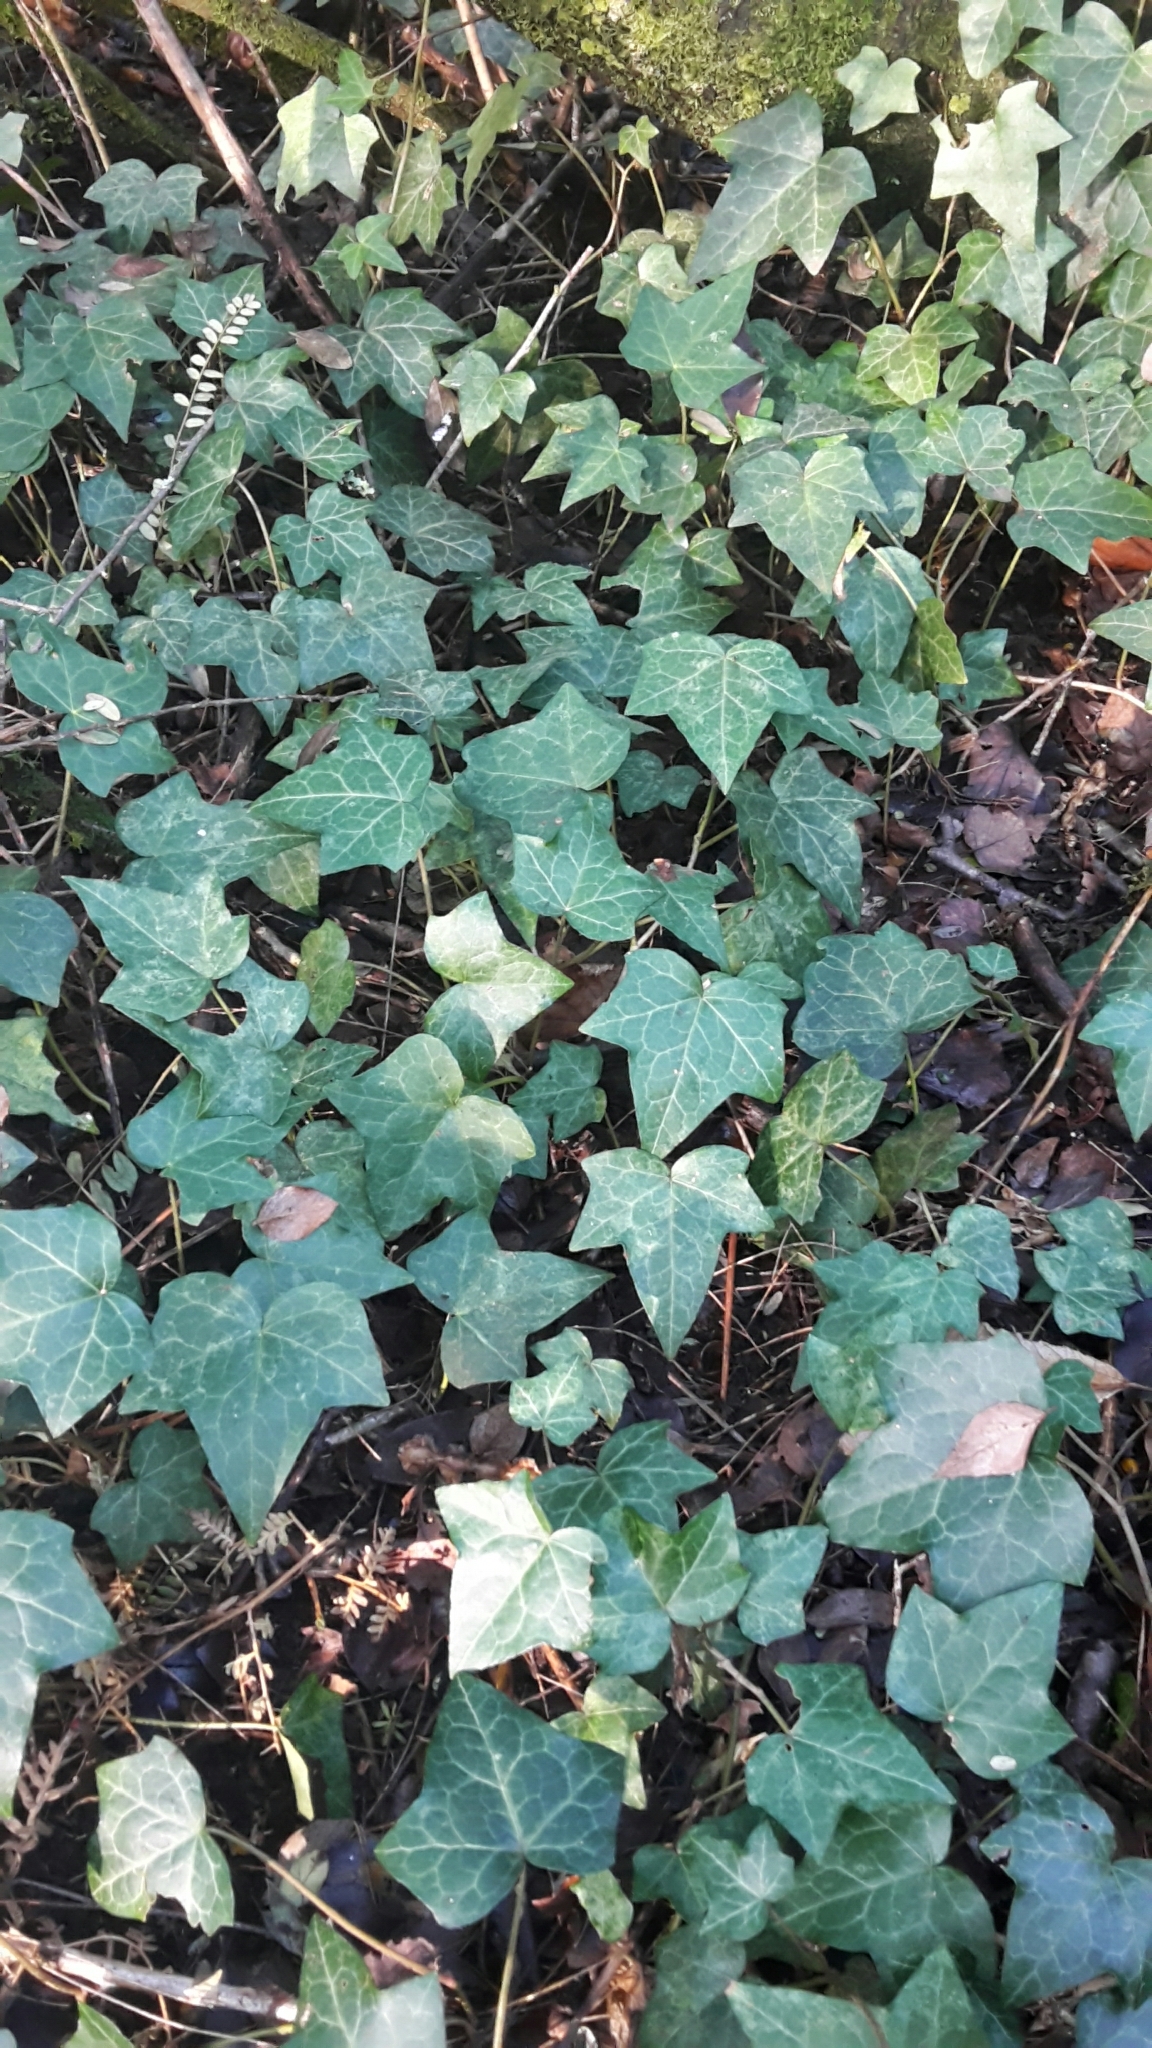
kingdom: Plantae
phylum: Tracheophyta
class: Magnoliopsida
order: Apiales
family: Araliaceae
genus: Hedera
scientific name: Hedera helix
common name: Ivy
